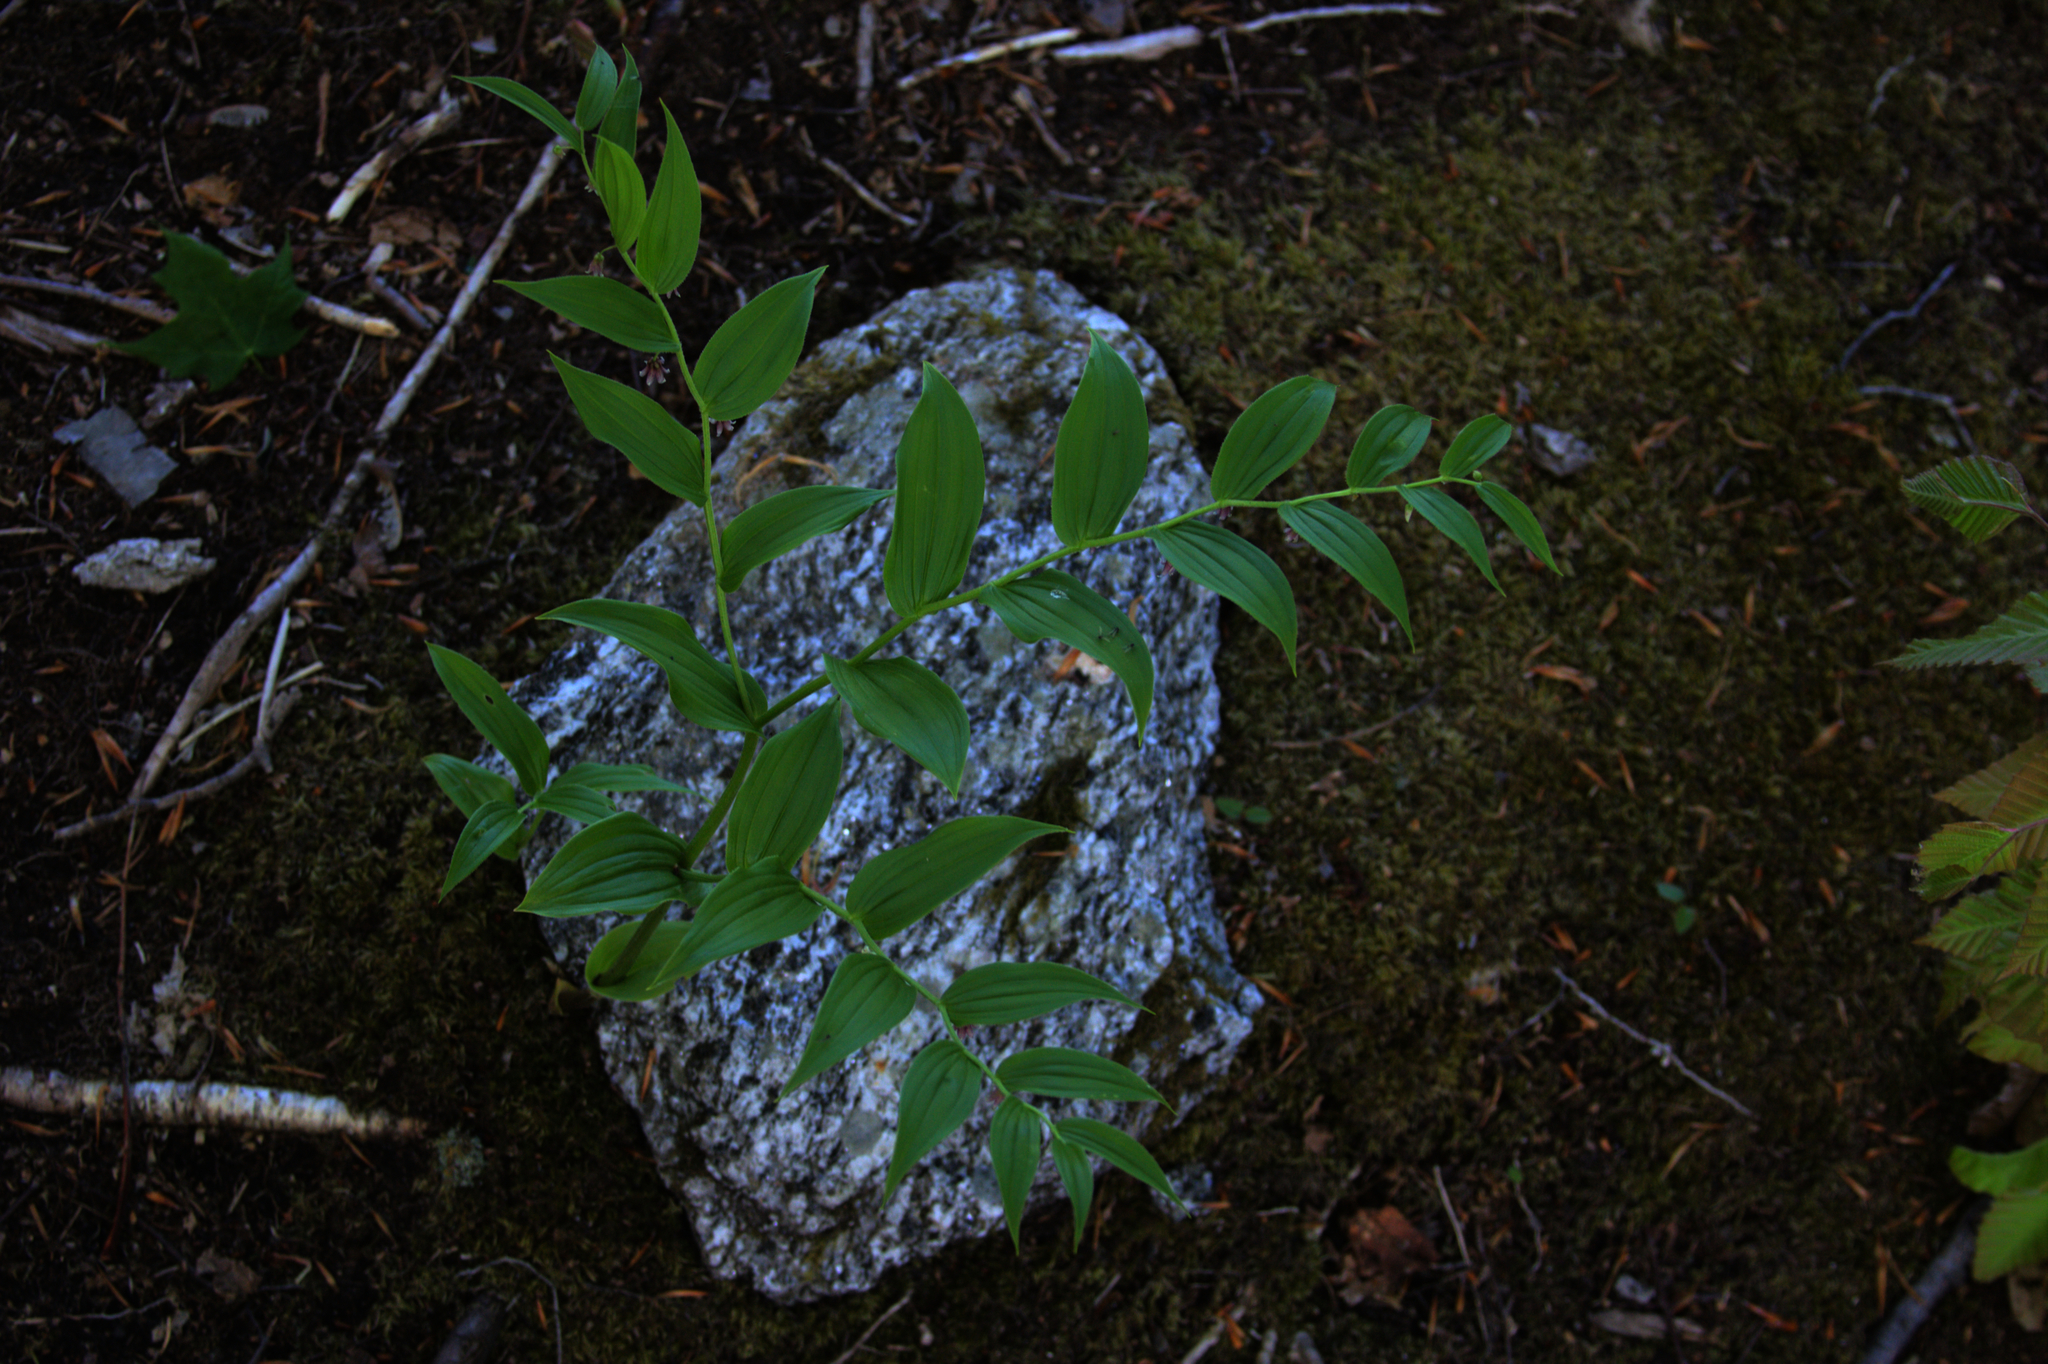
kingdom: Plantae
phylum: Tracheophyta
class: Liliopsida
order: Liliales
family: Liliaceae
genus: Streptopus
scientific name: Streptopus lanceolatus
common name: Rose mandarin
